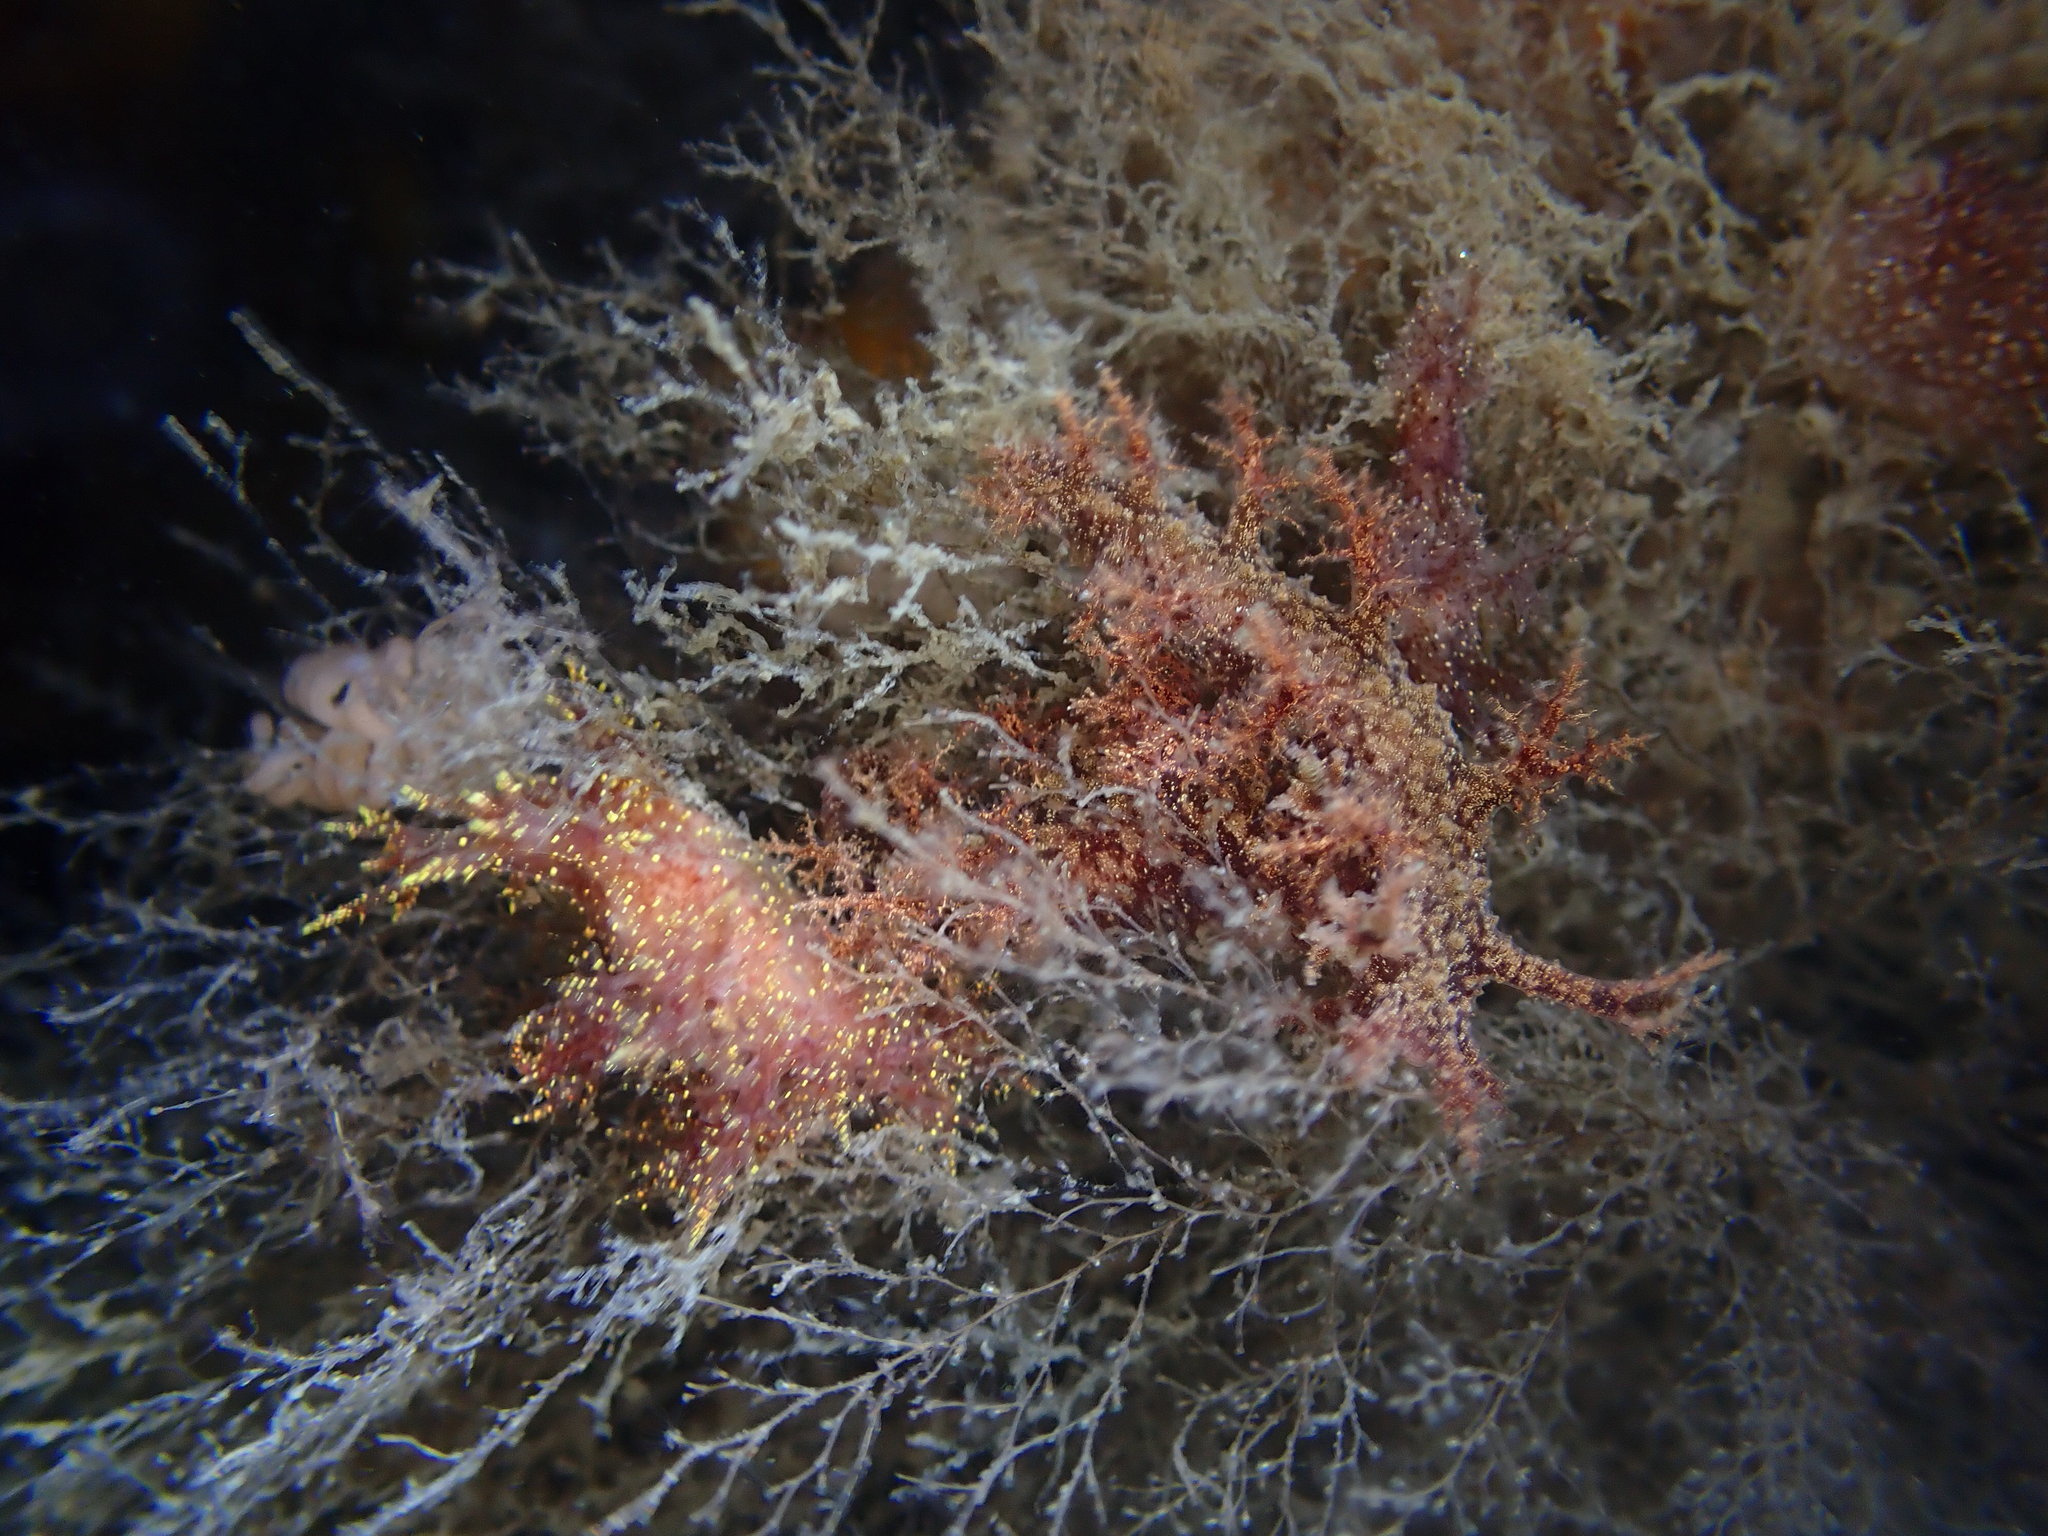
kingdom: Animalia
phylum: Mollusca
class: Gastropoda
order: Nudibranchia
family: Dendronotidae
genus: Dendronotus
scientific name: Dendronotus venustus
